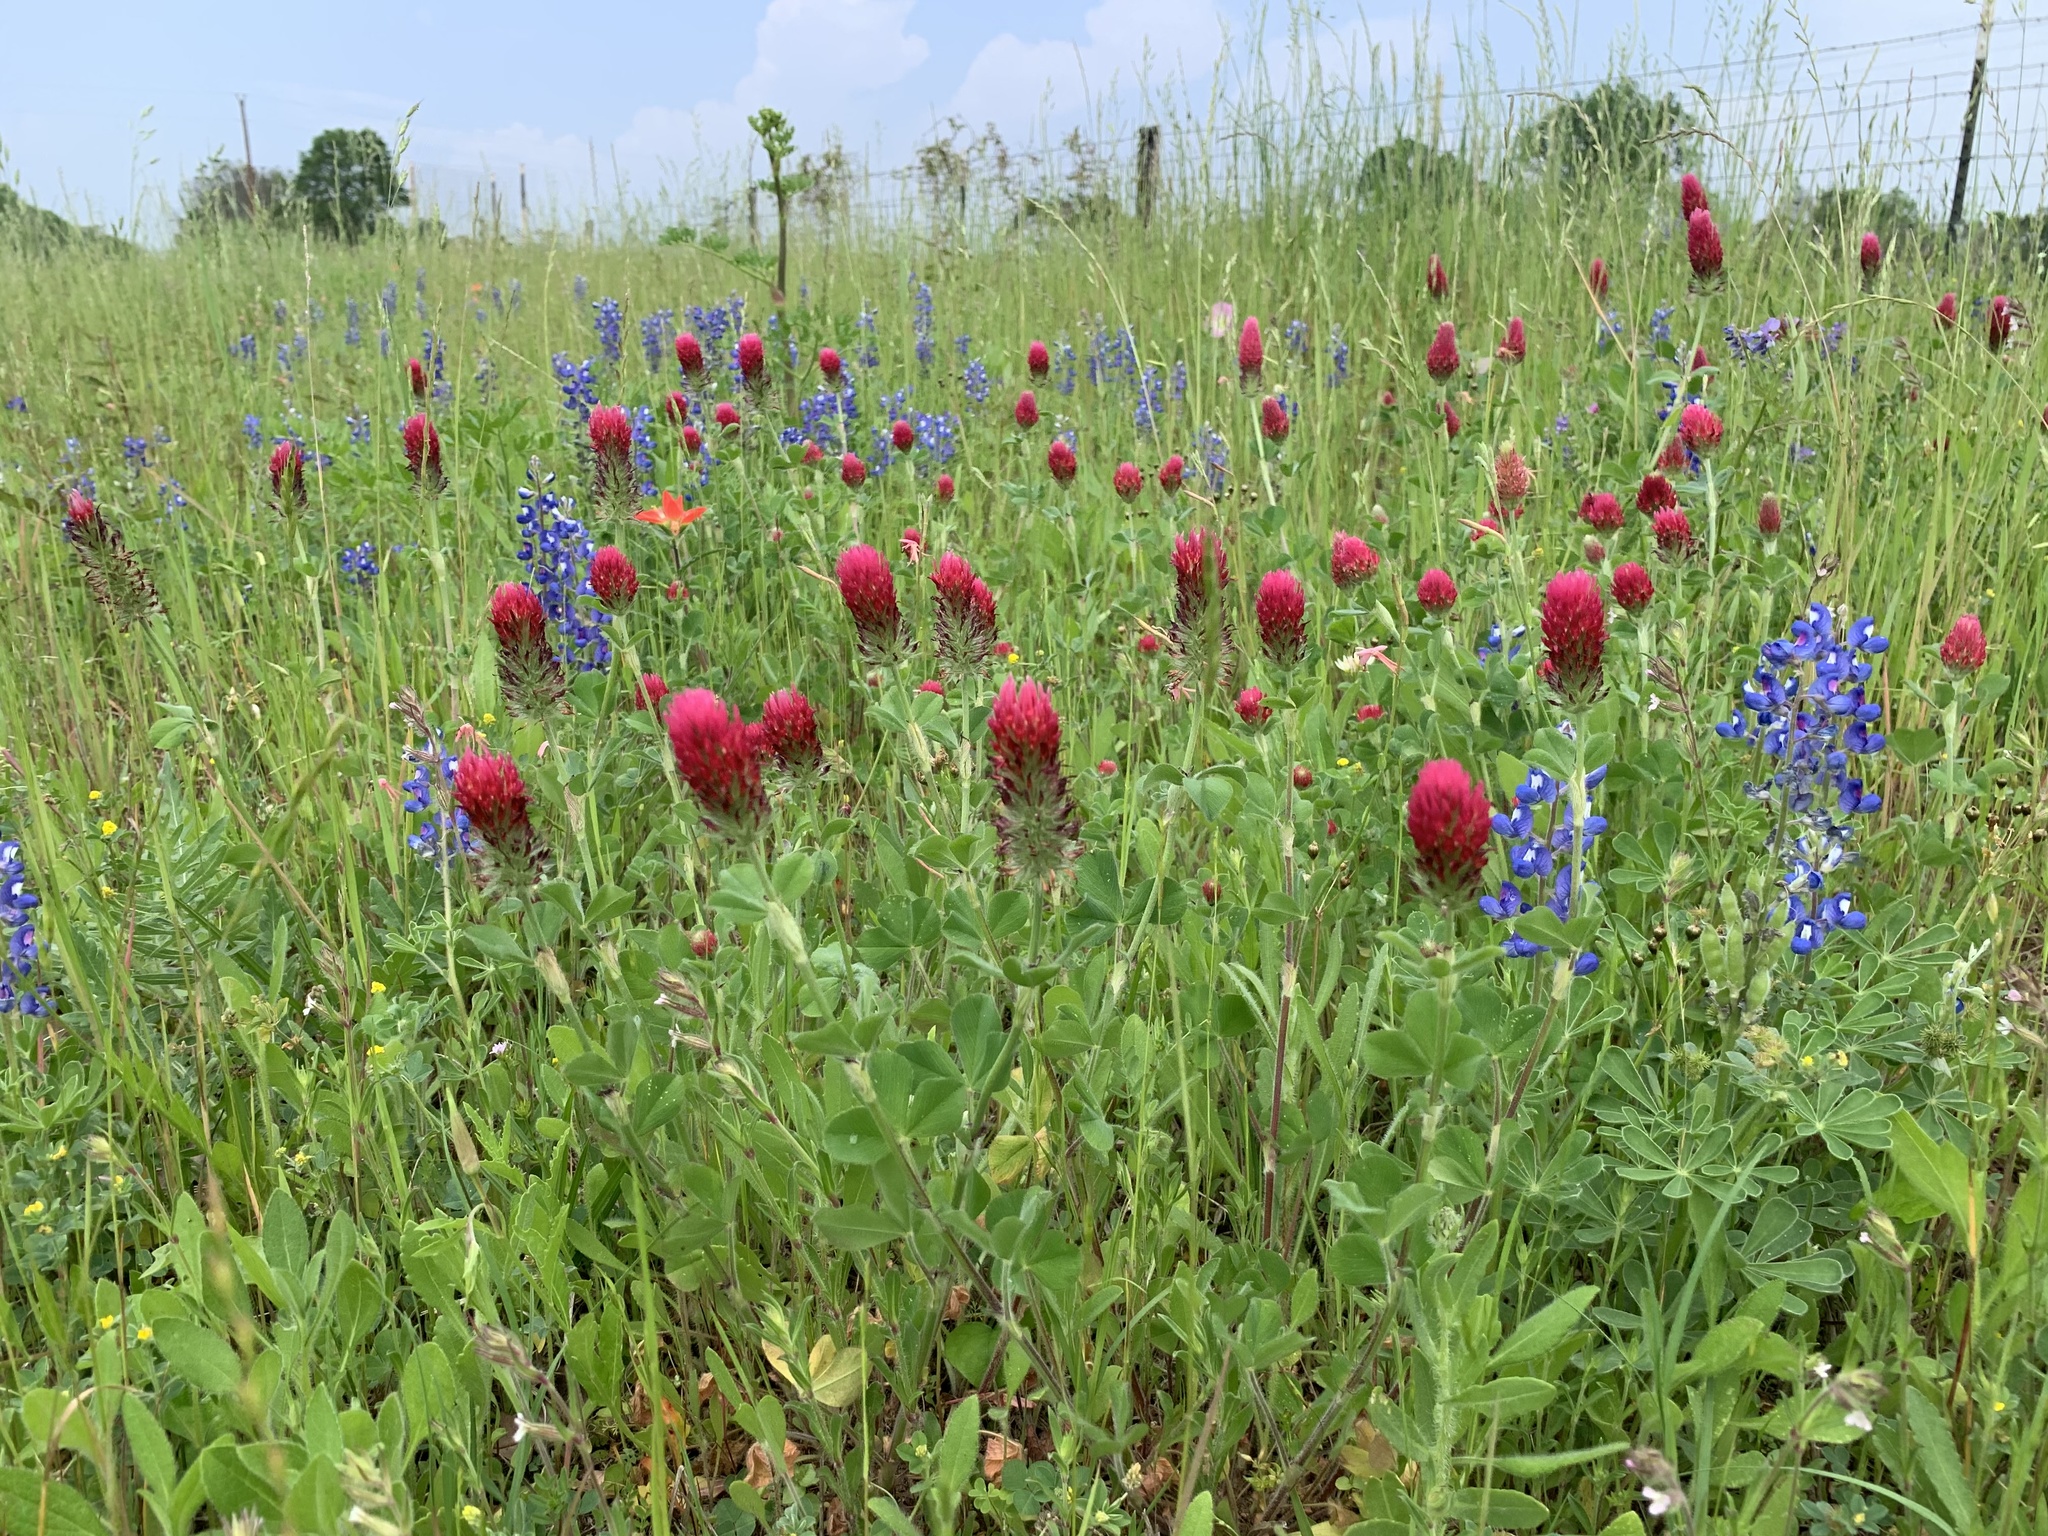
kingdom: Plantae
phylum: Tracheophyta
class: Magnoliopsida
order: Fabales
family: Fabaceae
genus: Trifolium
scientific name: Trifolium incarnatum
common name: Crimson clover
